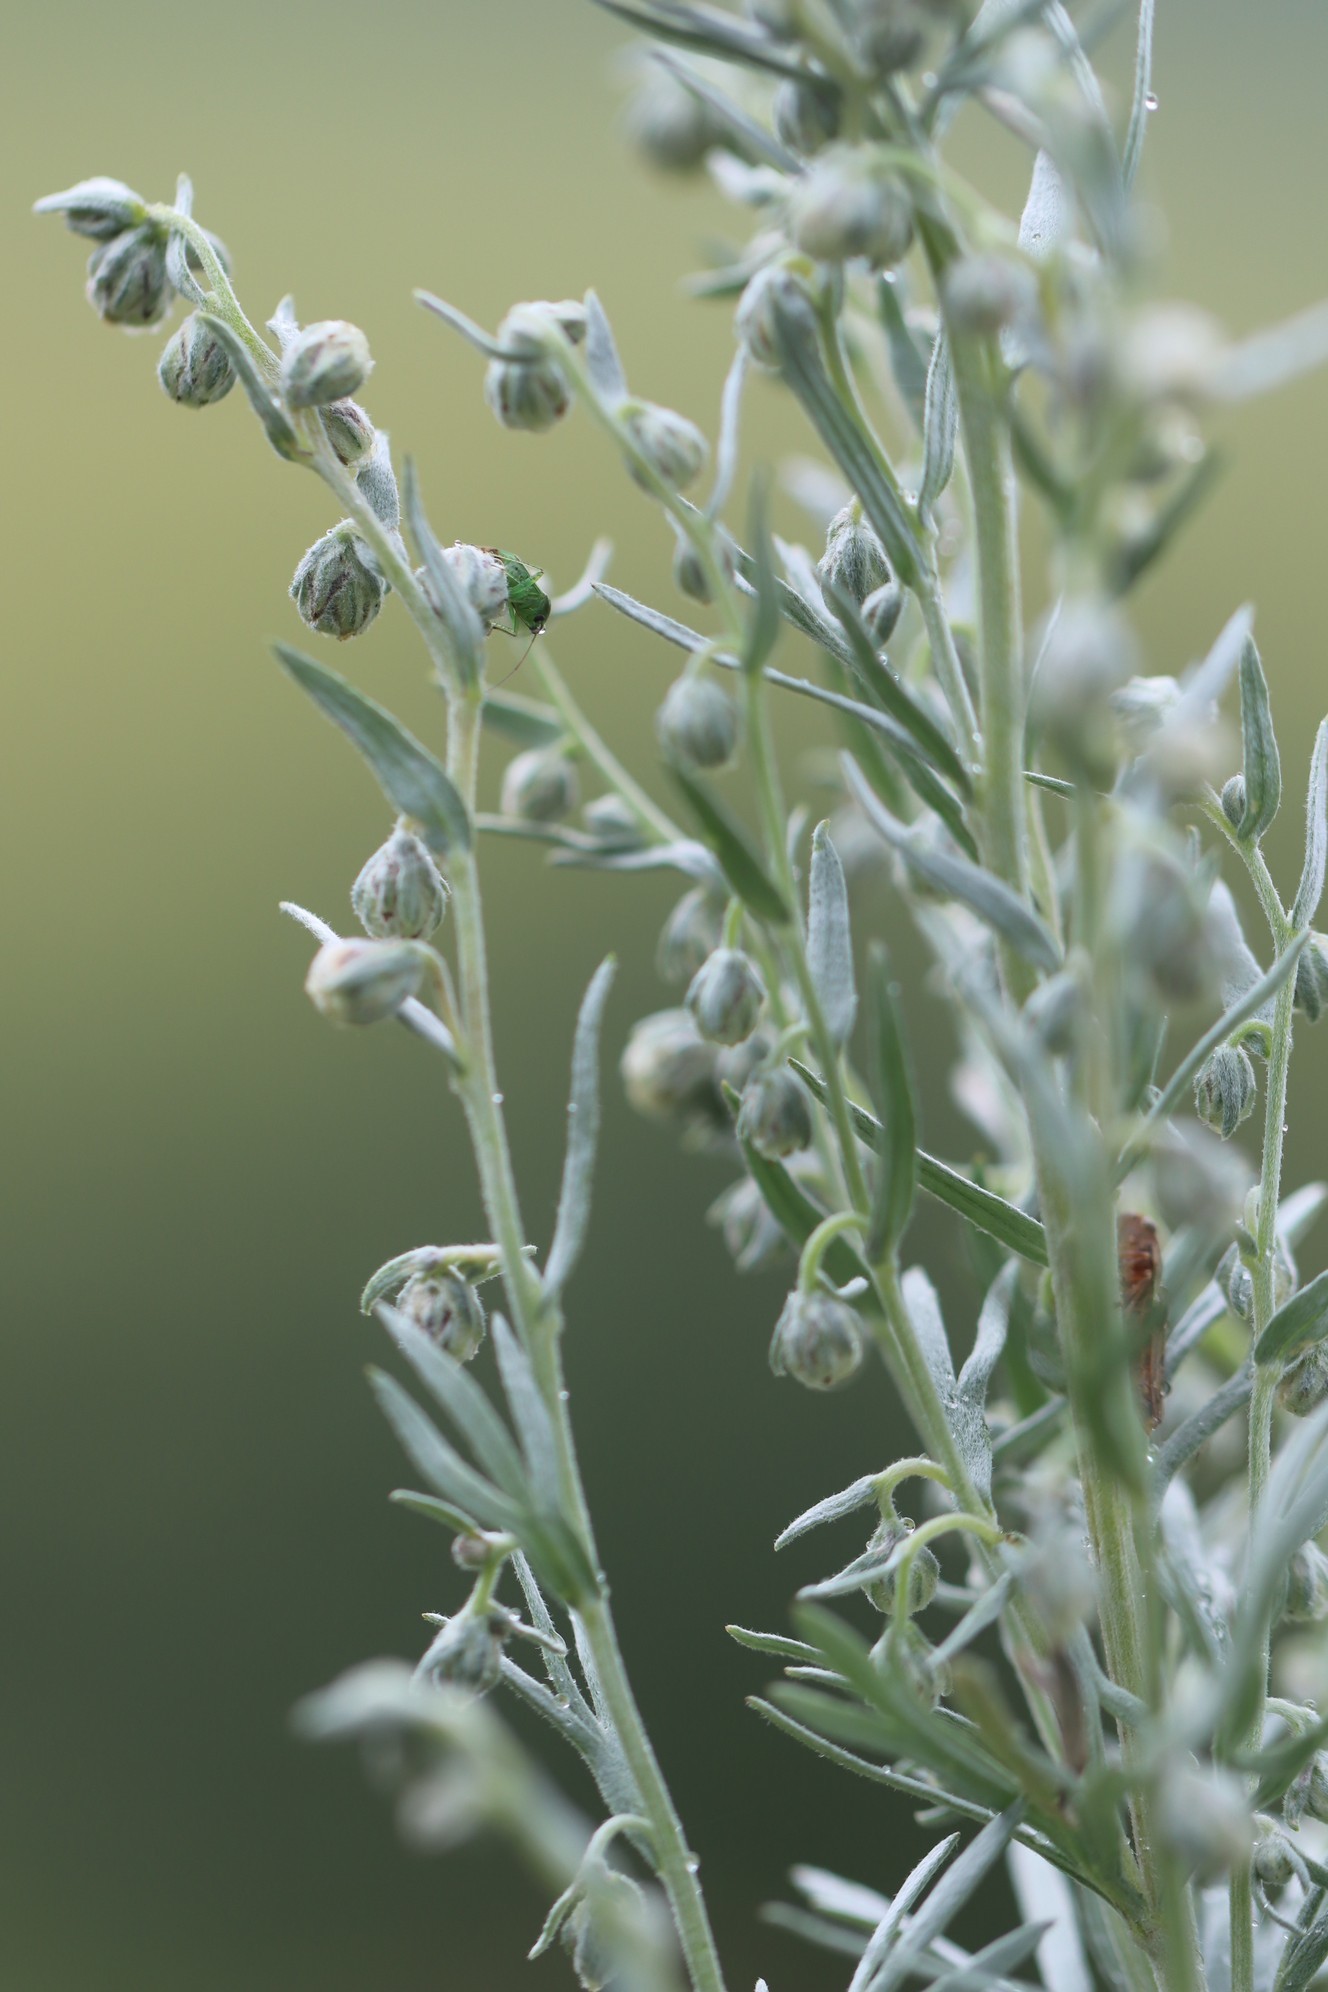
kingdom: Plantae
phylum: Tracheophyta
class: Magnoliopsida
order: Asterales
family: Asteraceae
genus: Artemisia
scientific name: Artemisia sericea
